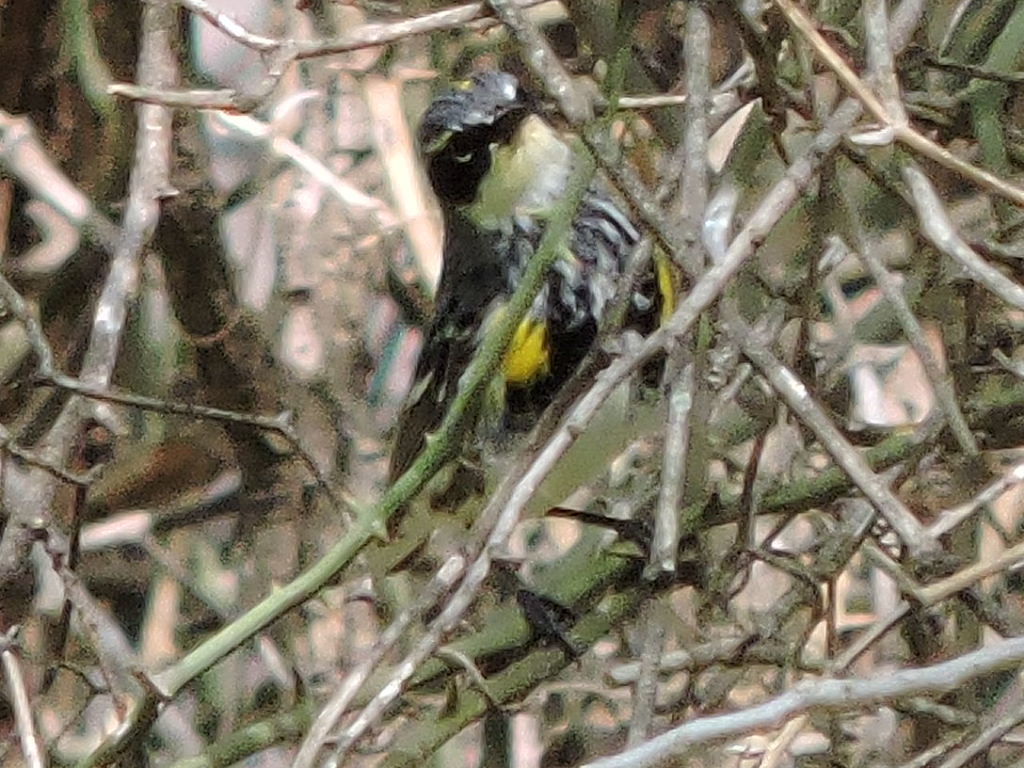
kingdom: Animalia
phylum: Chordata
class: Aves
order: Passeriformes
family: Parulidae
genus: Setophaga
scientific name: Setophaga coronata
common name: Myrtle warbler
